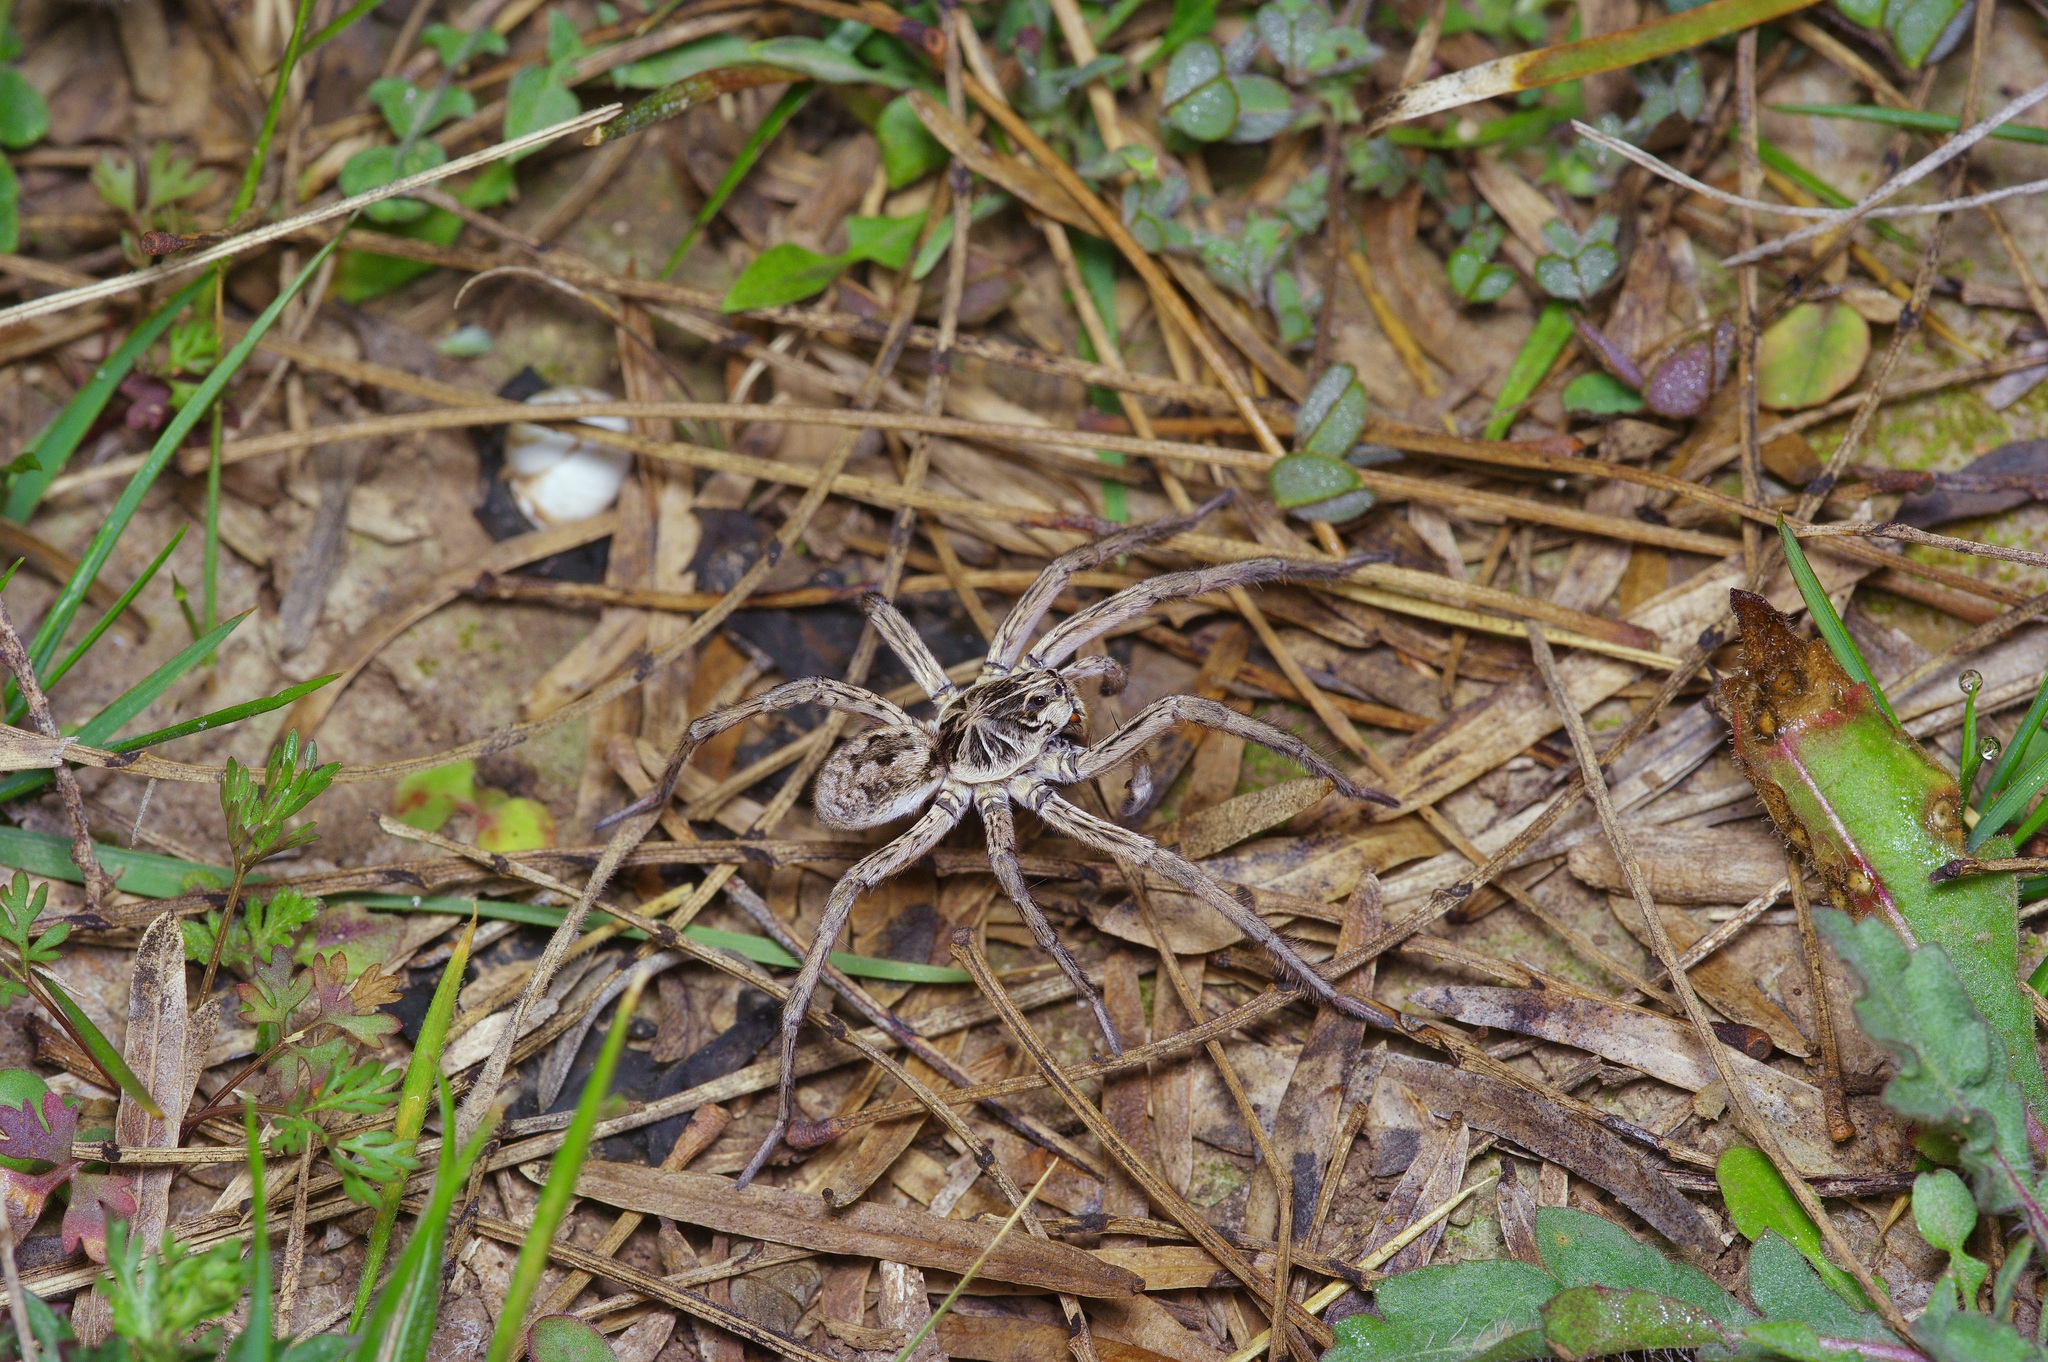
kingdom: Animalia
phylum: Arthropoda
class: Arachnida
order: Araneae
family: Lycosidae
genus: Hogna
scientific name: Hogna baltimoriana
